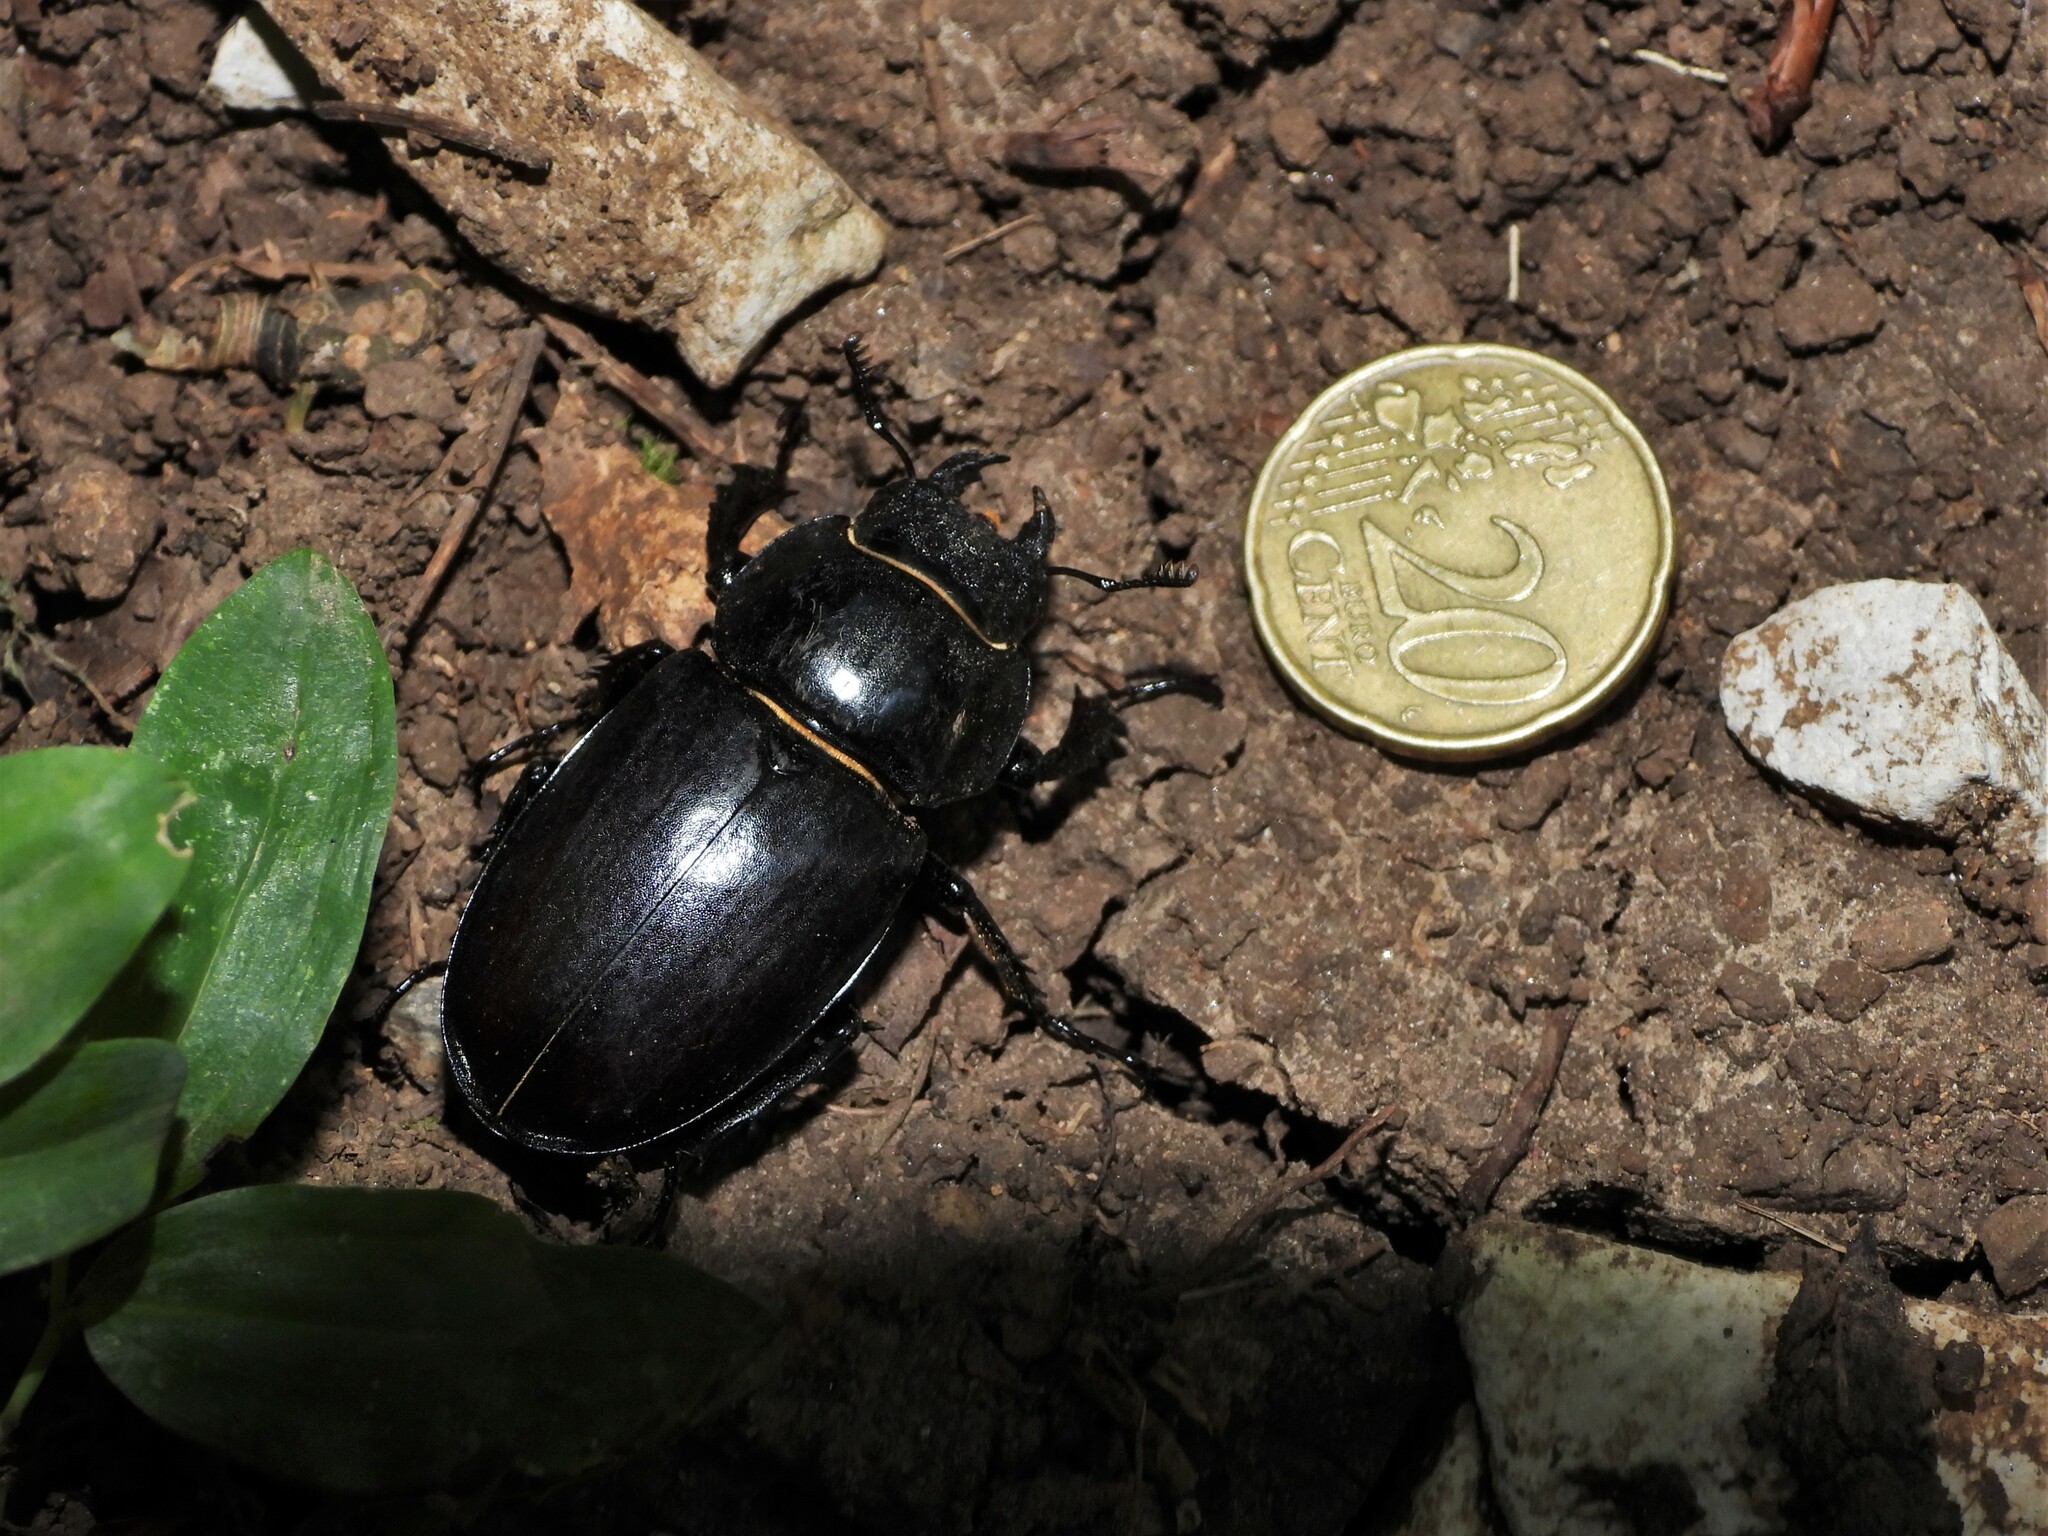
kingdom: Animalia
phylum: Arthropoda
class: Insecta
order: Coleoptera
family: Lucanidae
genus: Lucanus
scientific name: Lucanus cervus
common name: Stag beetle
